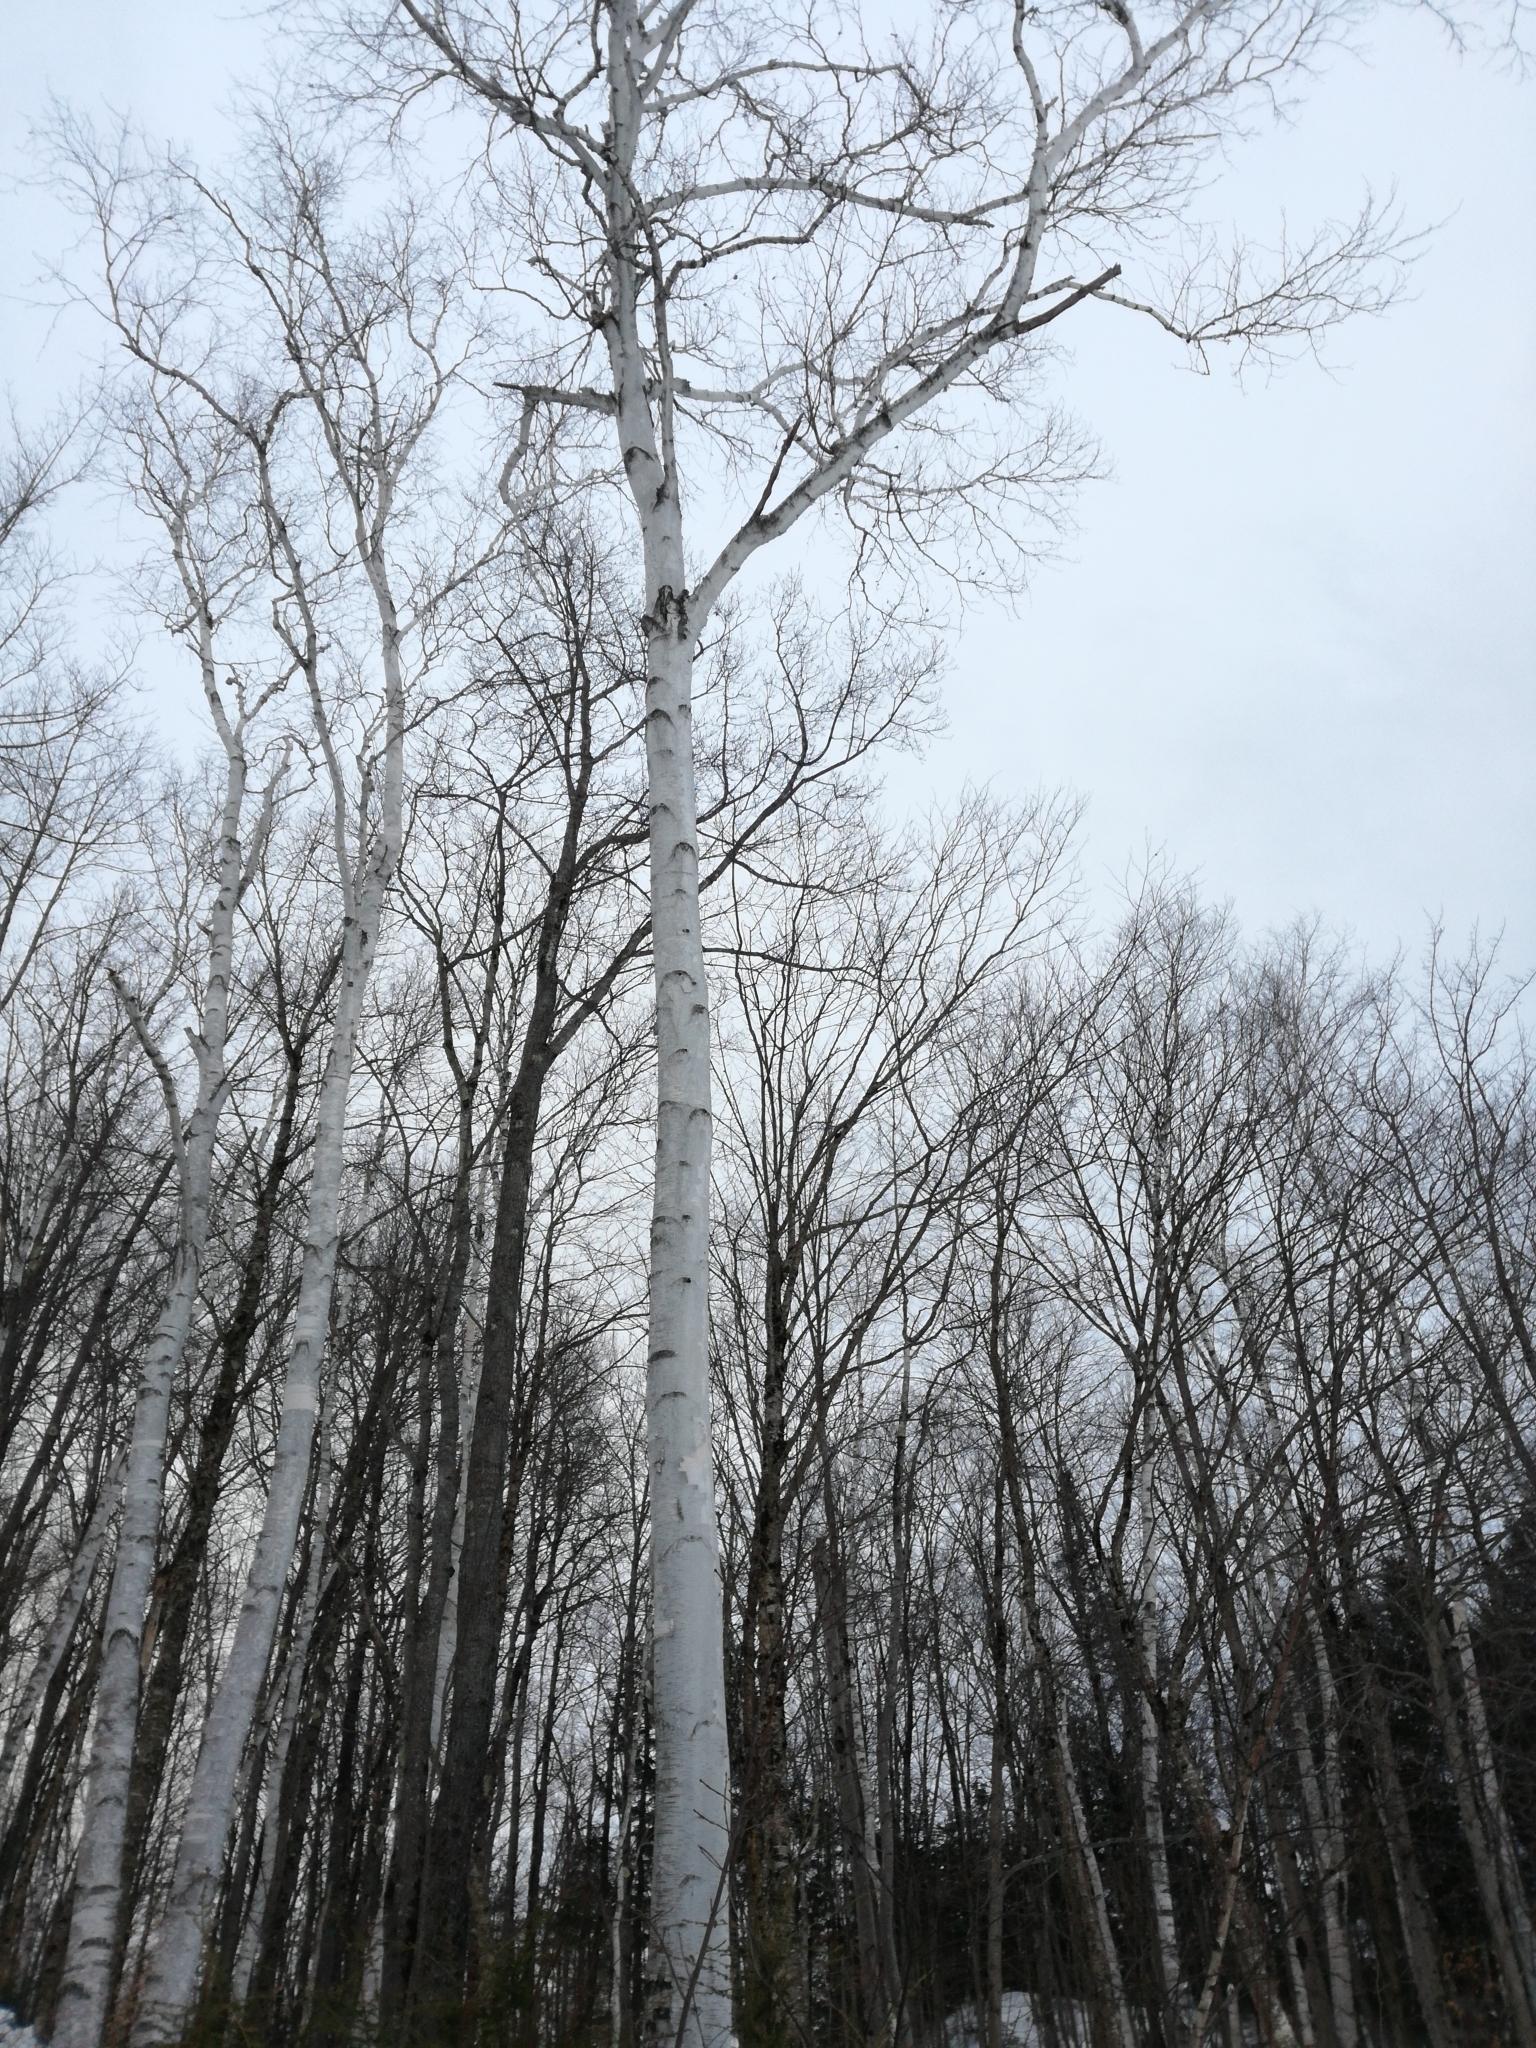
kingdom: Plantae
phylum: Tracheophyta
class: Magnoliopsida
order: Fagales
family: Betulaceae
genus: Betula
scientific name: Betula papyrifera
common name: Paper birch
